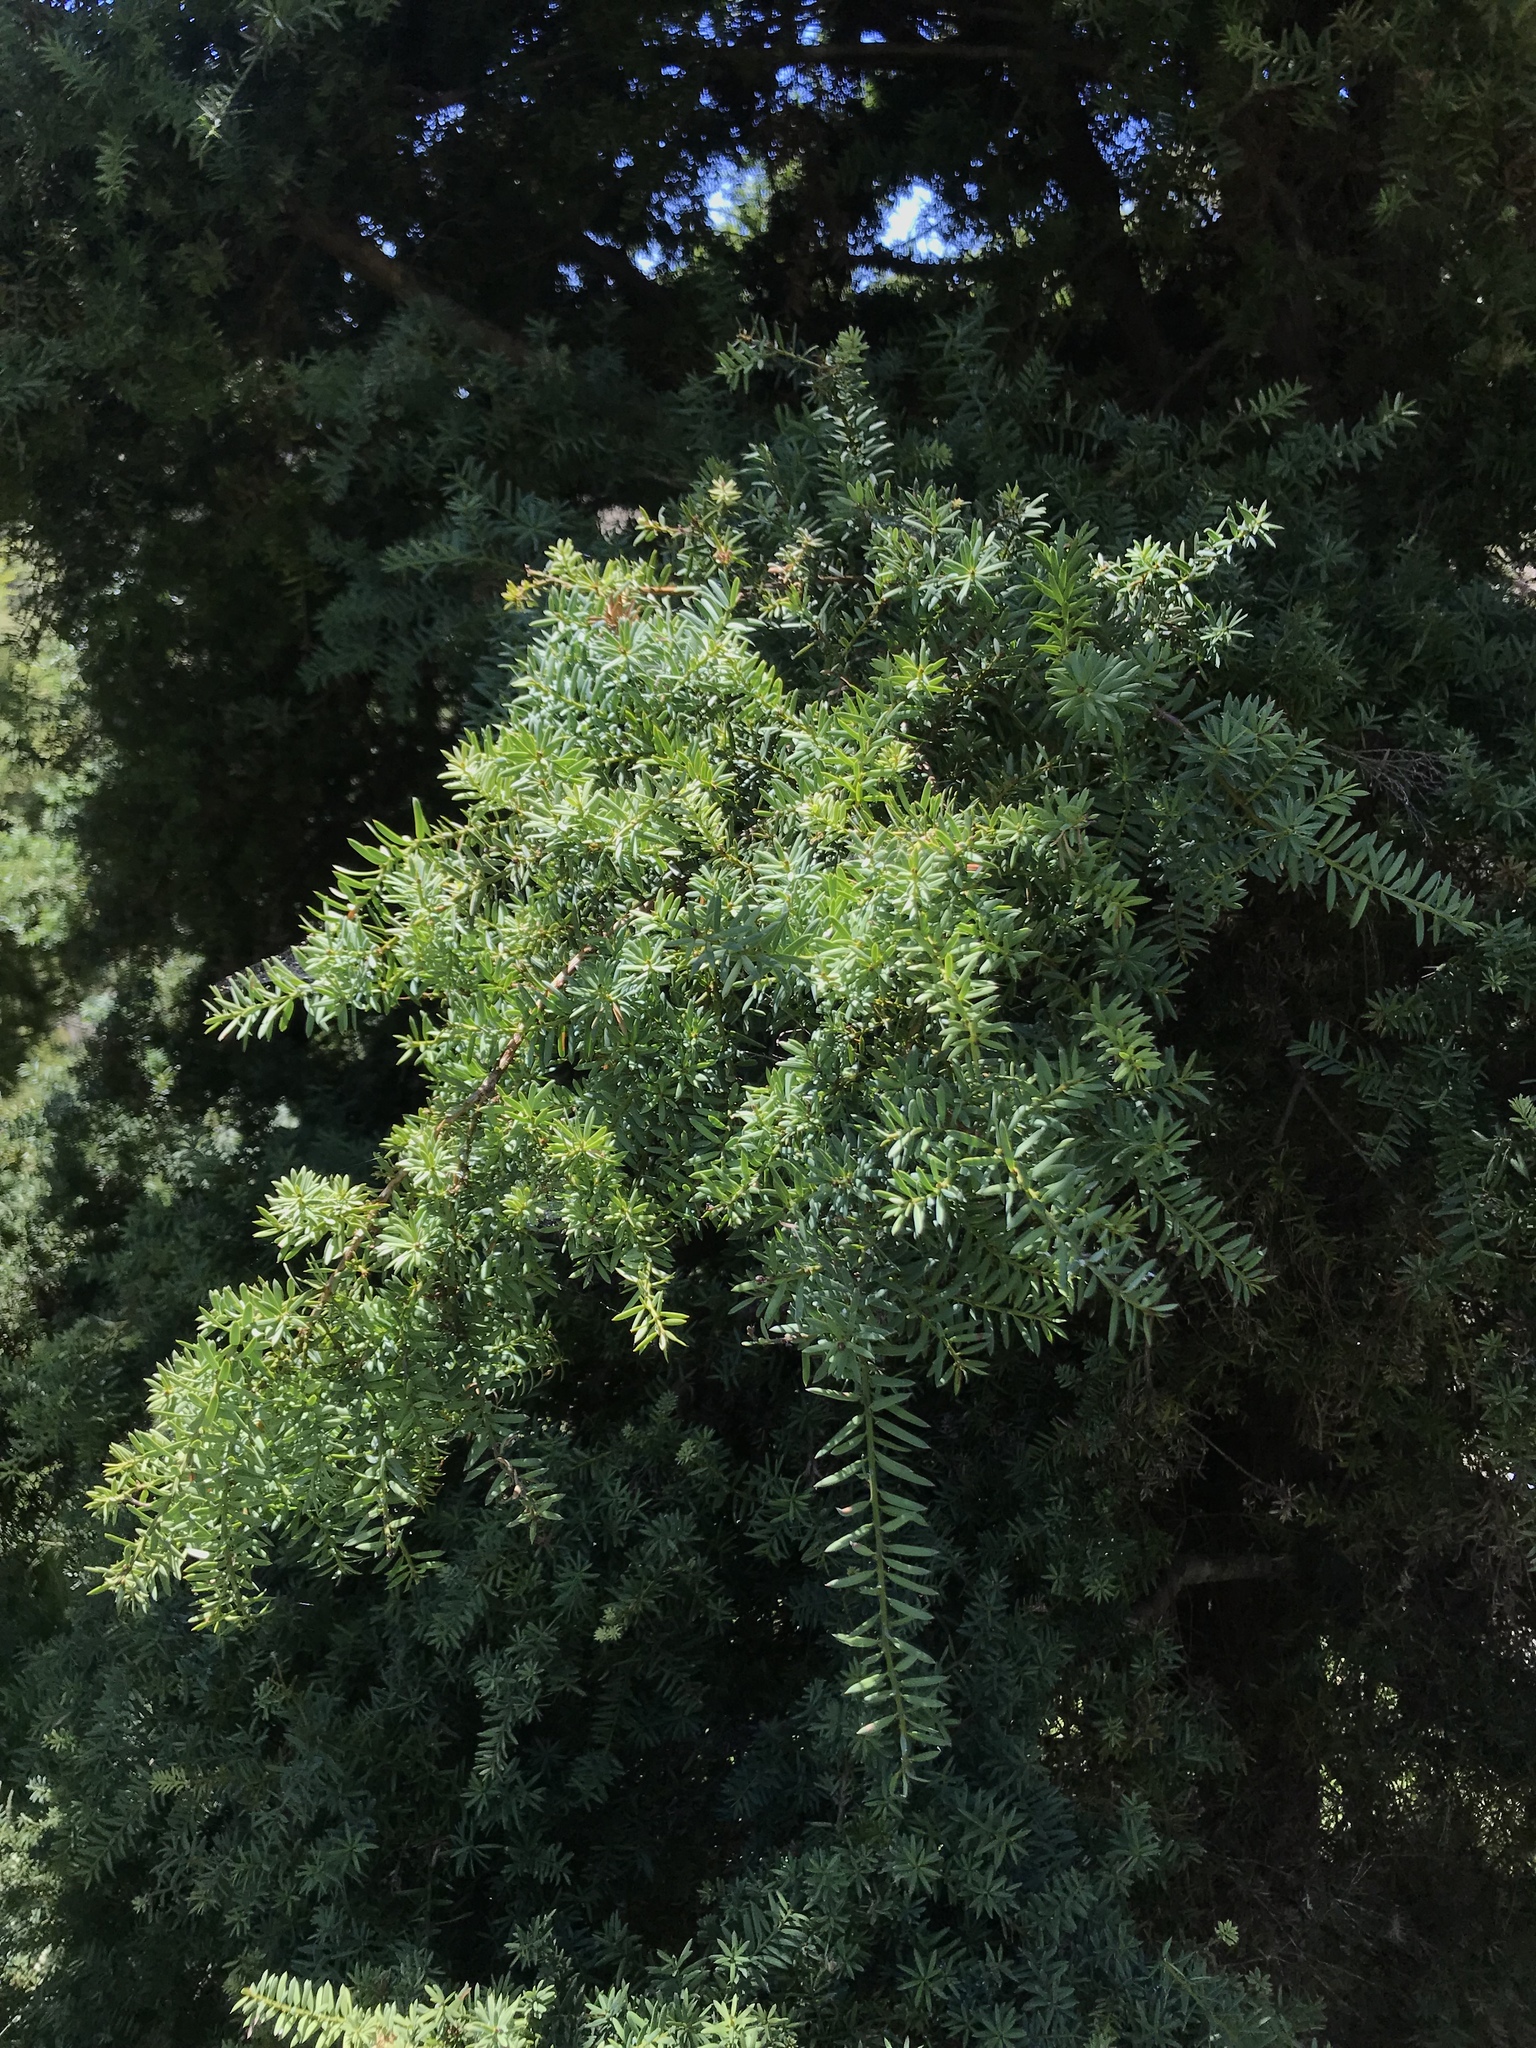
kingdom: Plantae
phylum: Tracheophyta
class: Pinopsida
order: Pinales
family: Podocarpaceae
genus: Podocarpus
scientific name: Podocarpus totara
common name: Totara
